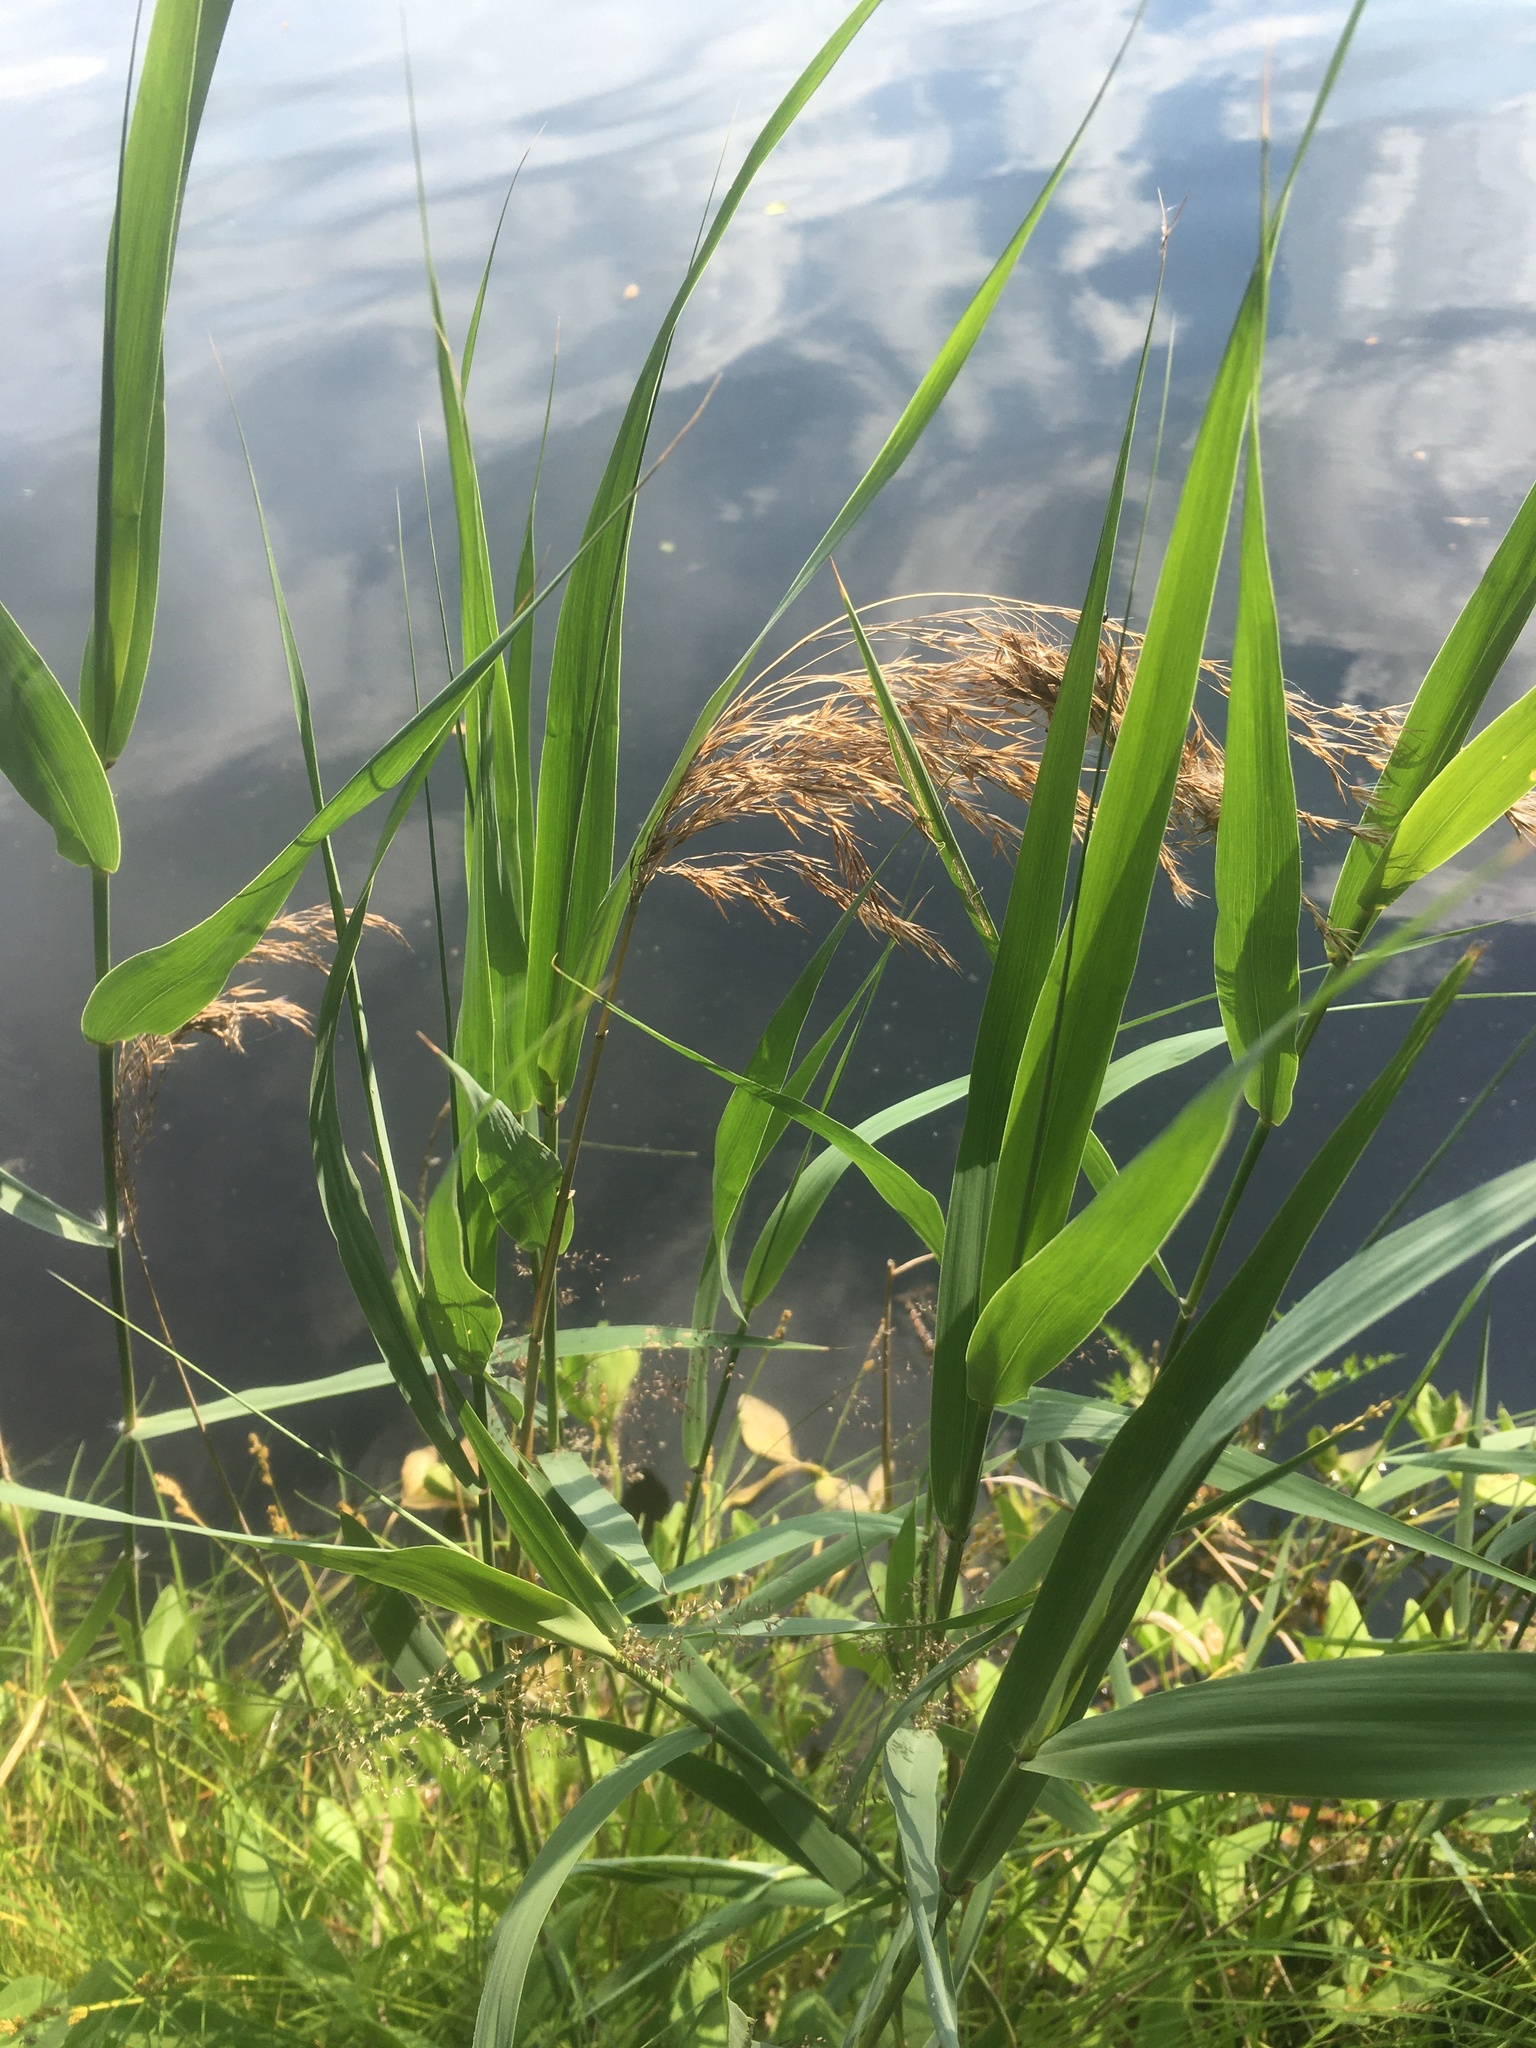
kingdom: Plantae
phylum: Tracheophyta
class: Liliopsida
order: Poales
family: Poaceae
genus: Phragmites
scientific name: Phragmites australis
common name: Common reed
